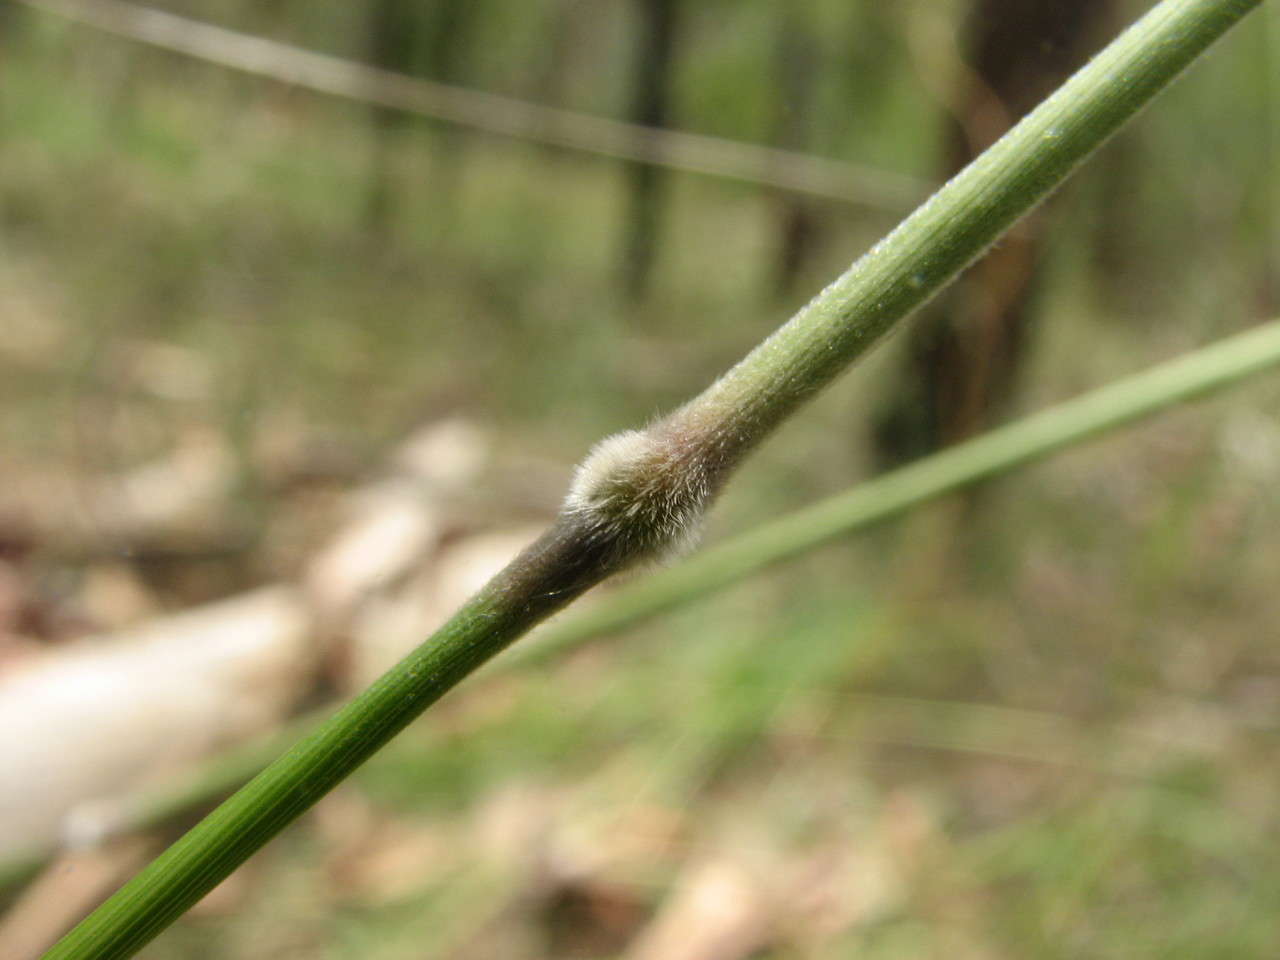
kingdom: Plantae
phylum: Tracheophyta
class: Liliopsida
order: Poales
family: Poaceae
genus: Austrostipa
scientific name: Austrostipa pubinodis
